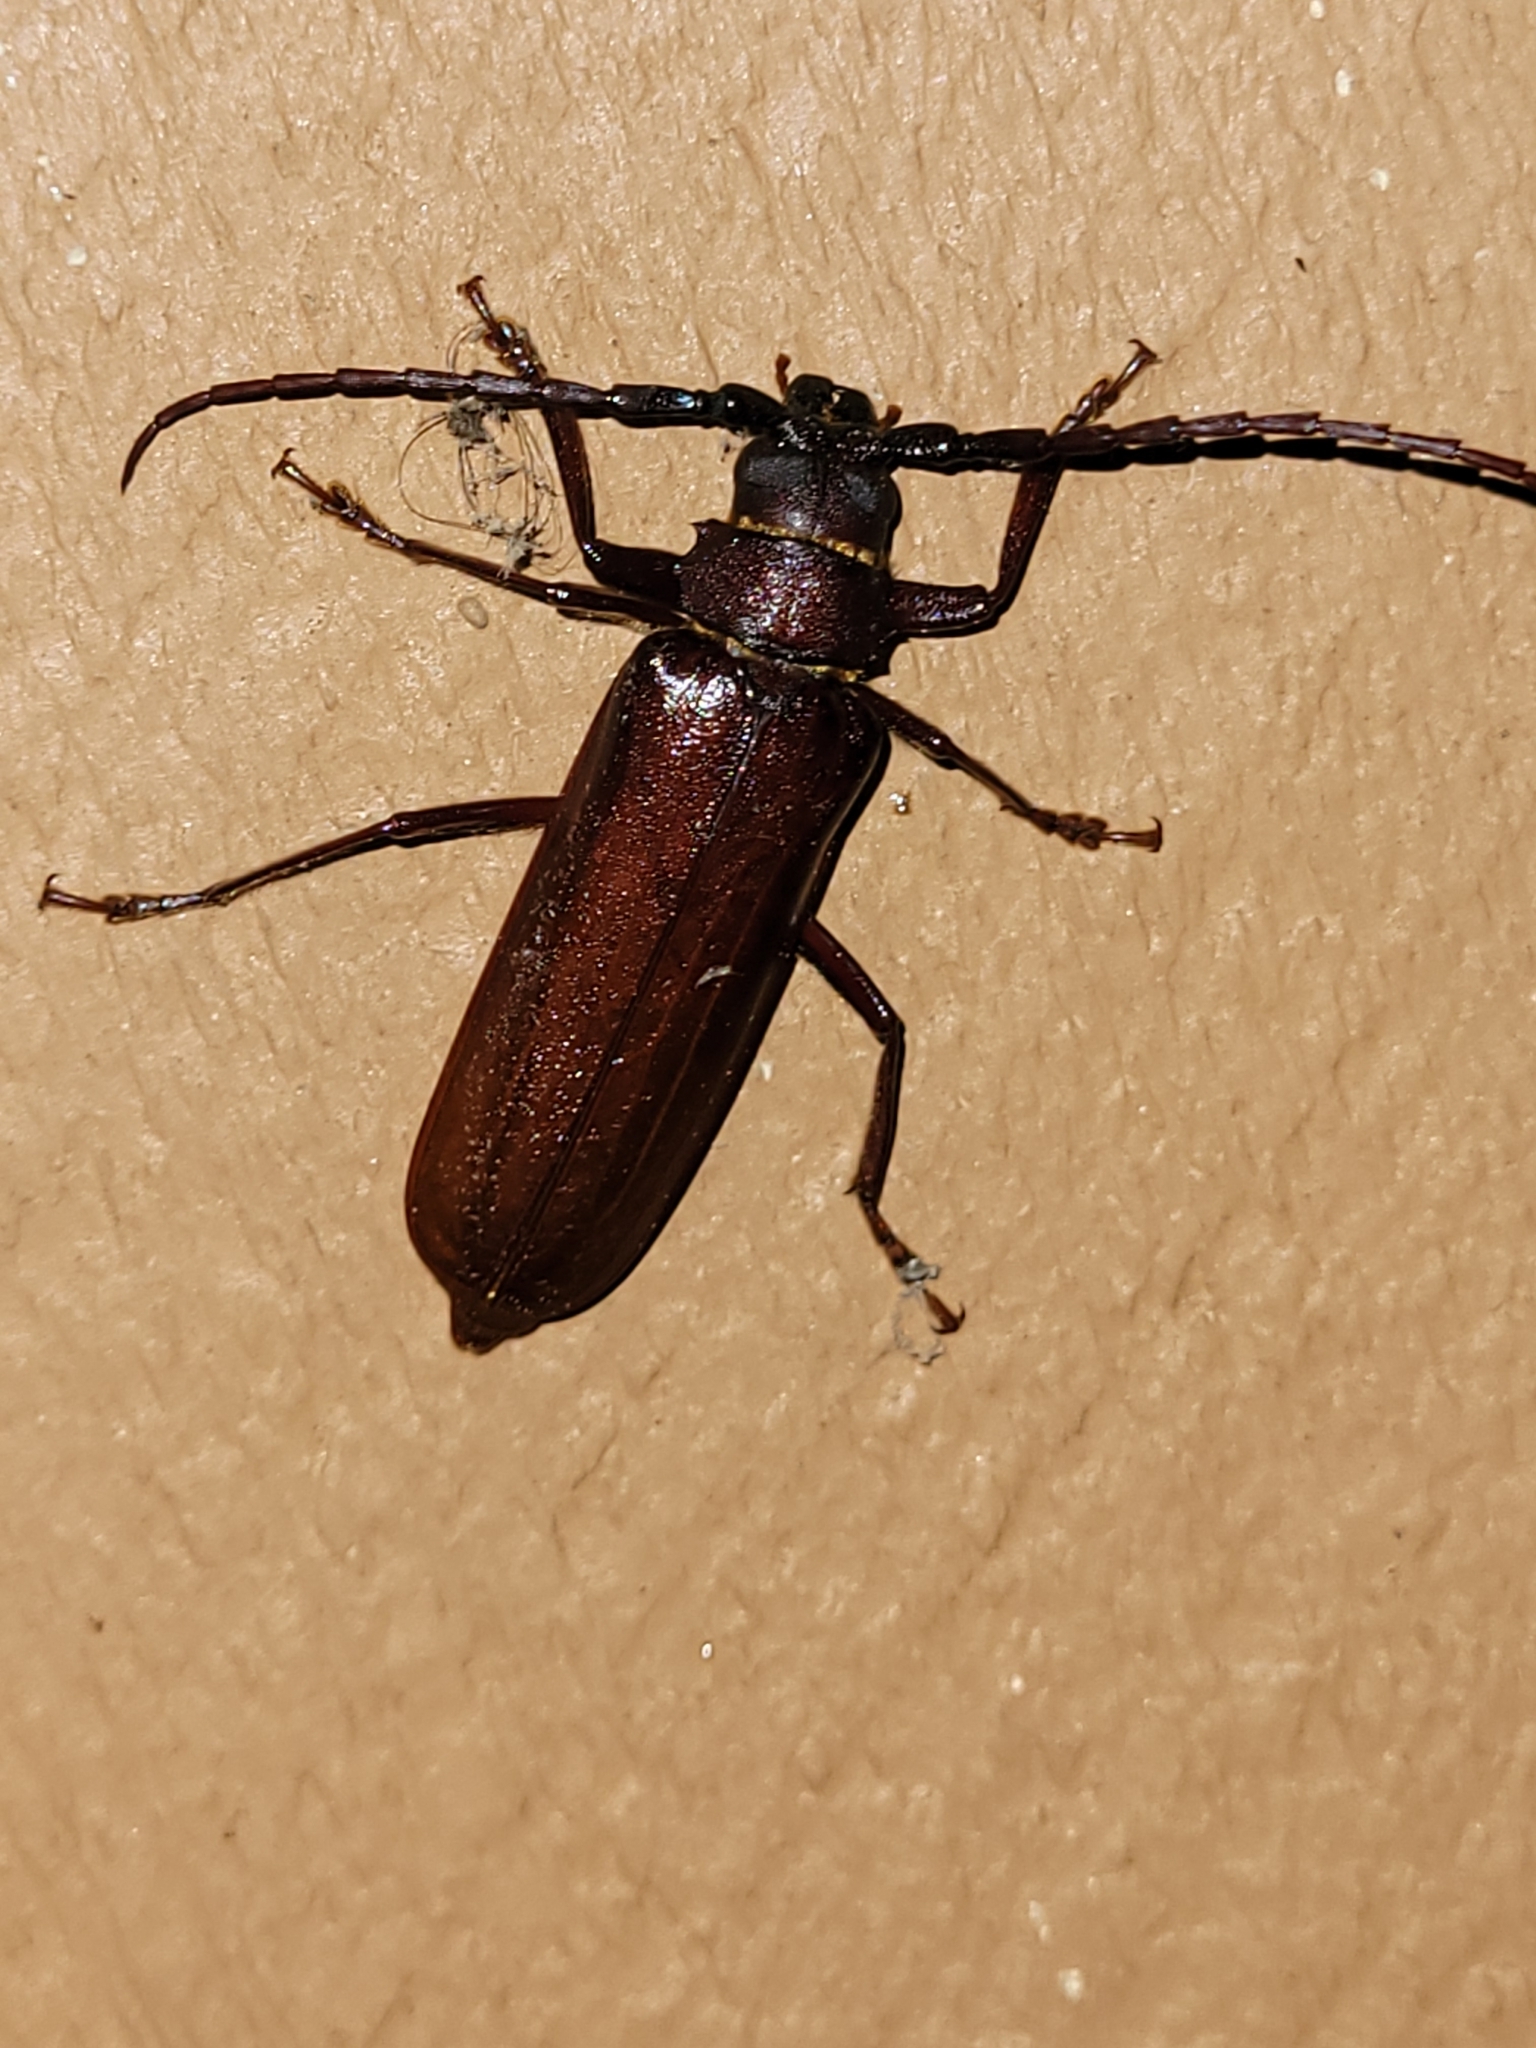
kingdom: Animalia
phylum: Arthropoda
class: Insecta
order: Coleoptera
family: Cerambycidae
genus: Orthosoma
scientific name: Orthosoma brunneum
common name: Brown prionid beetle
